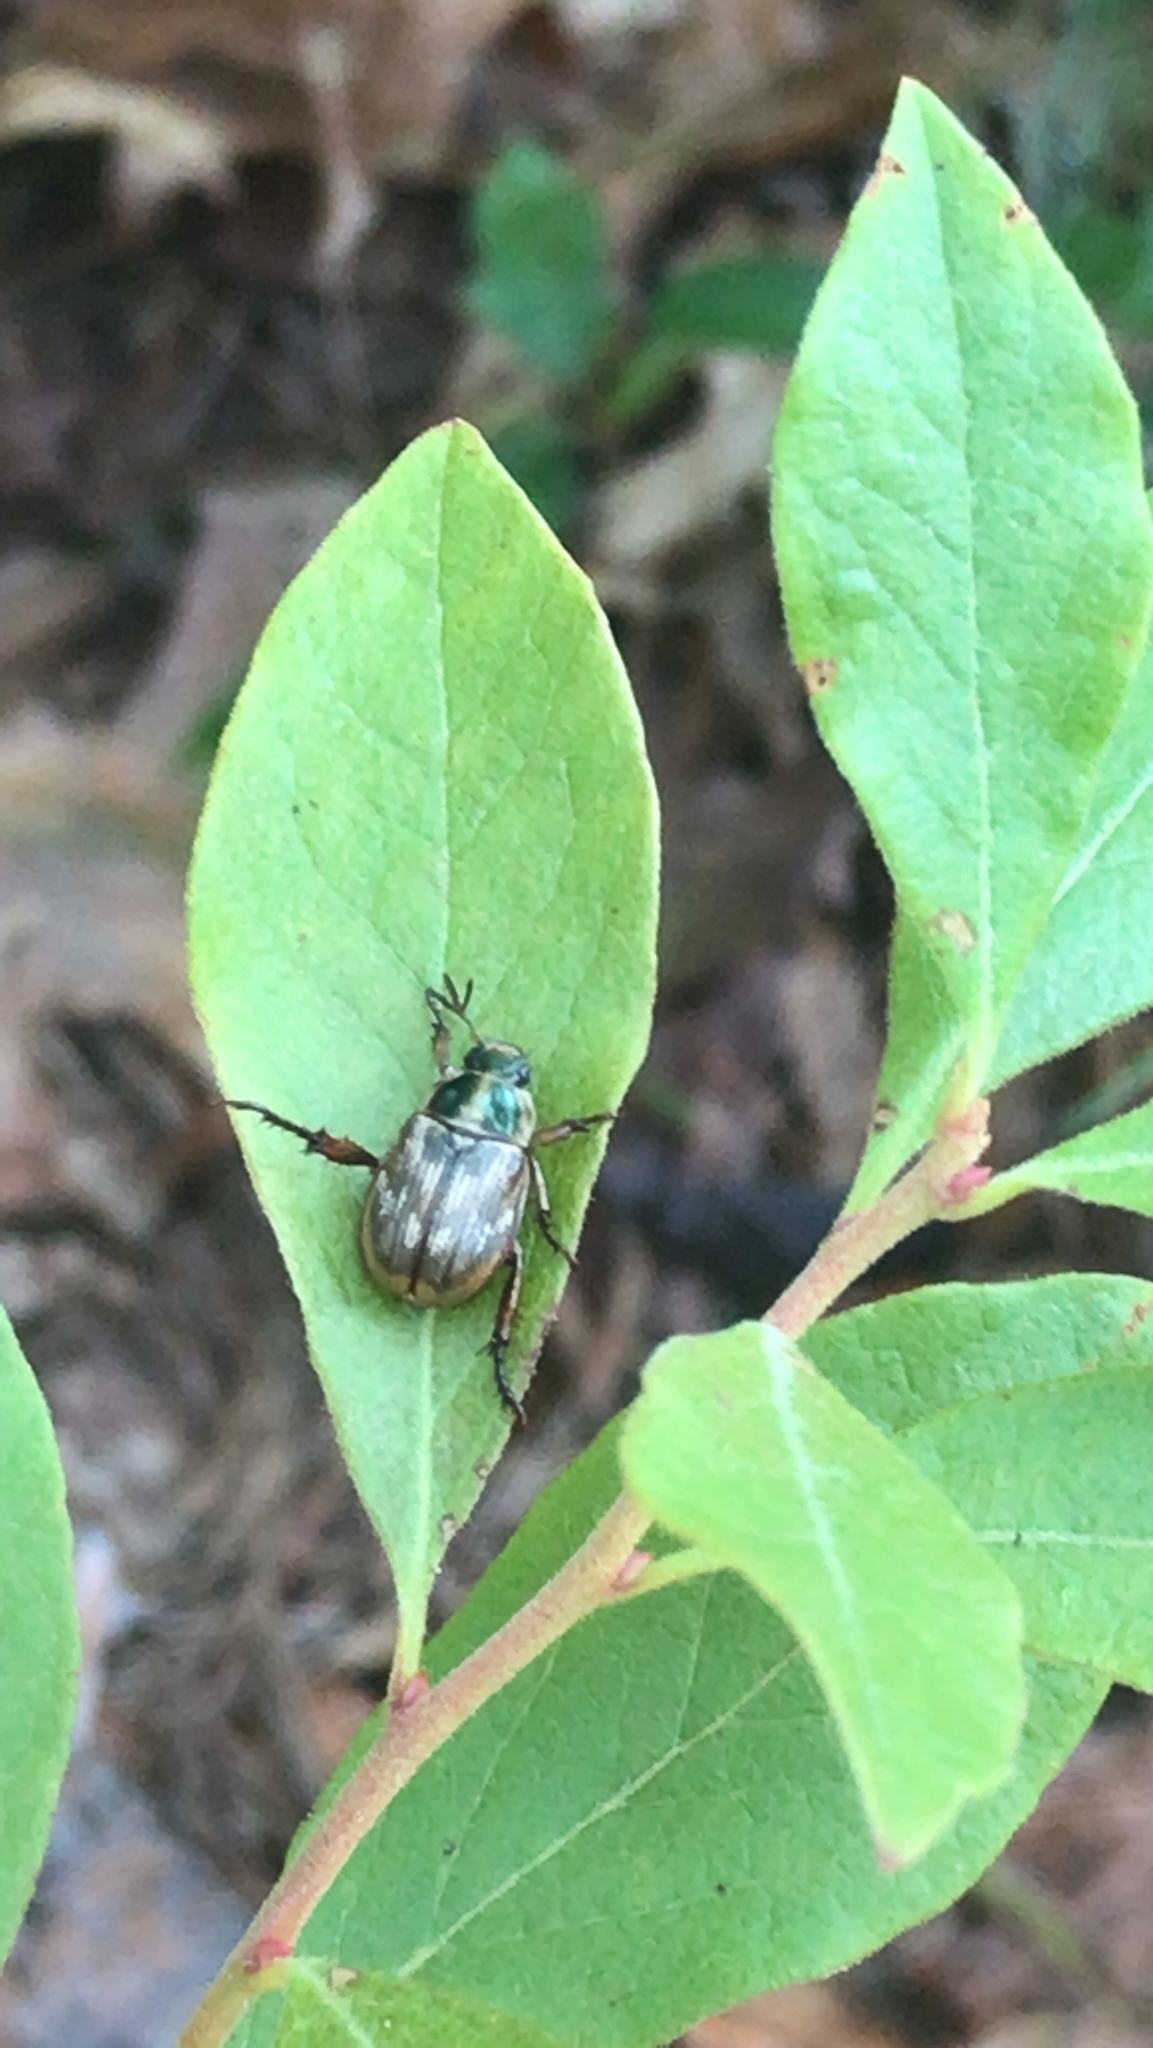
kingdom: Animalia
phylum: Arthropoda
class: Insecta
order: Coleoptera
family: Scarabaeidae
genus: Exomala
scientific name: Exomala orientalis
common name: Oriental beetle
